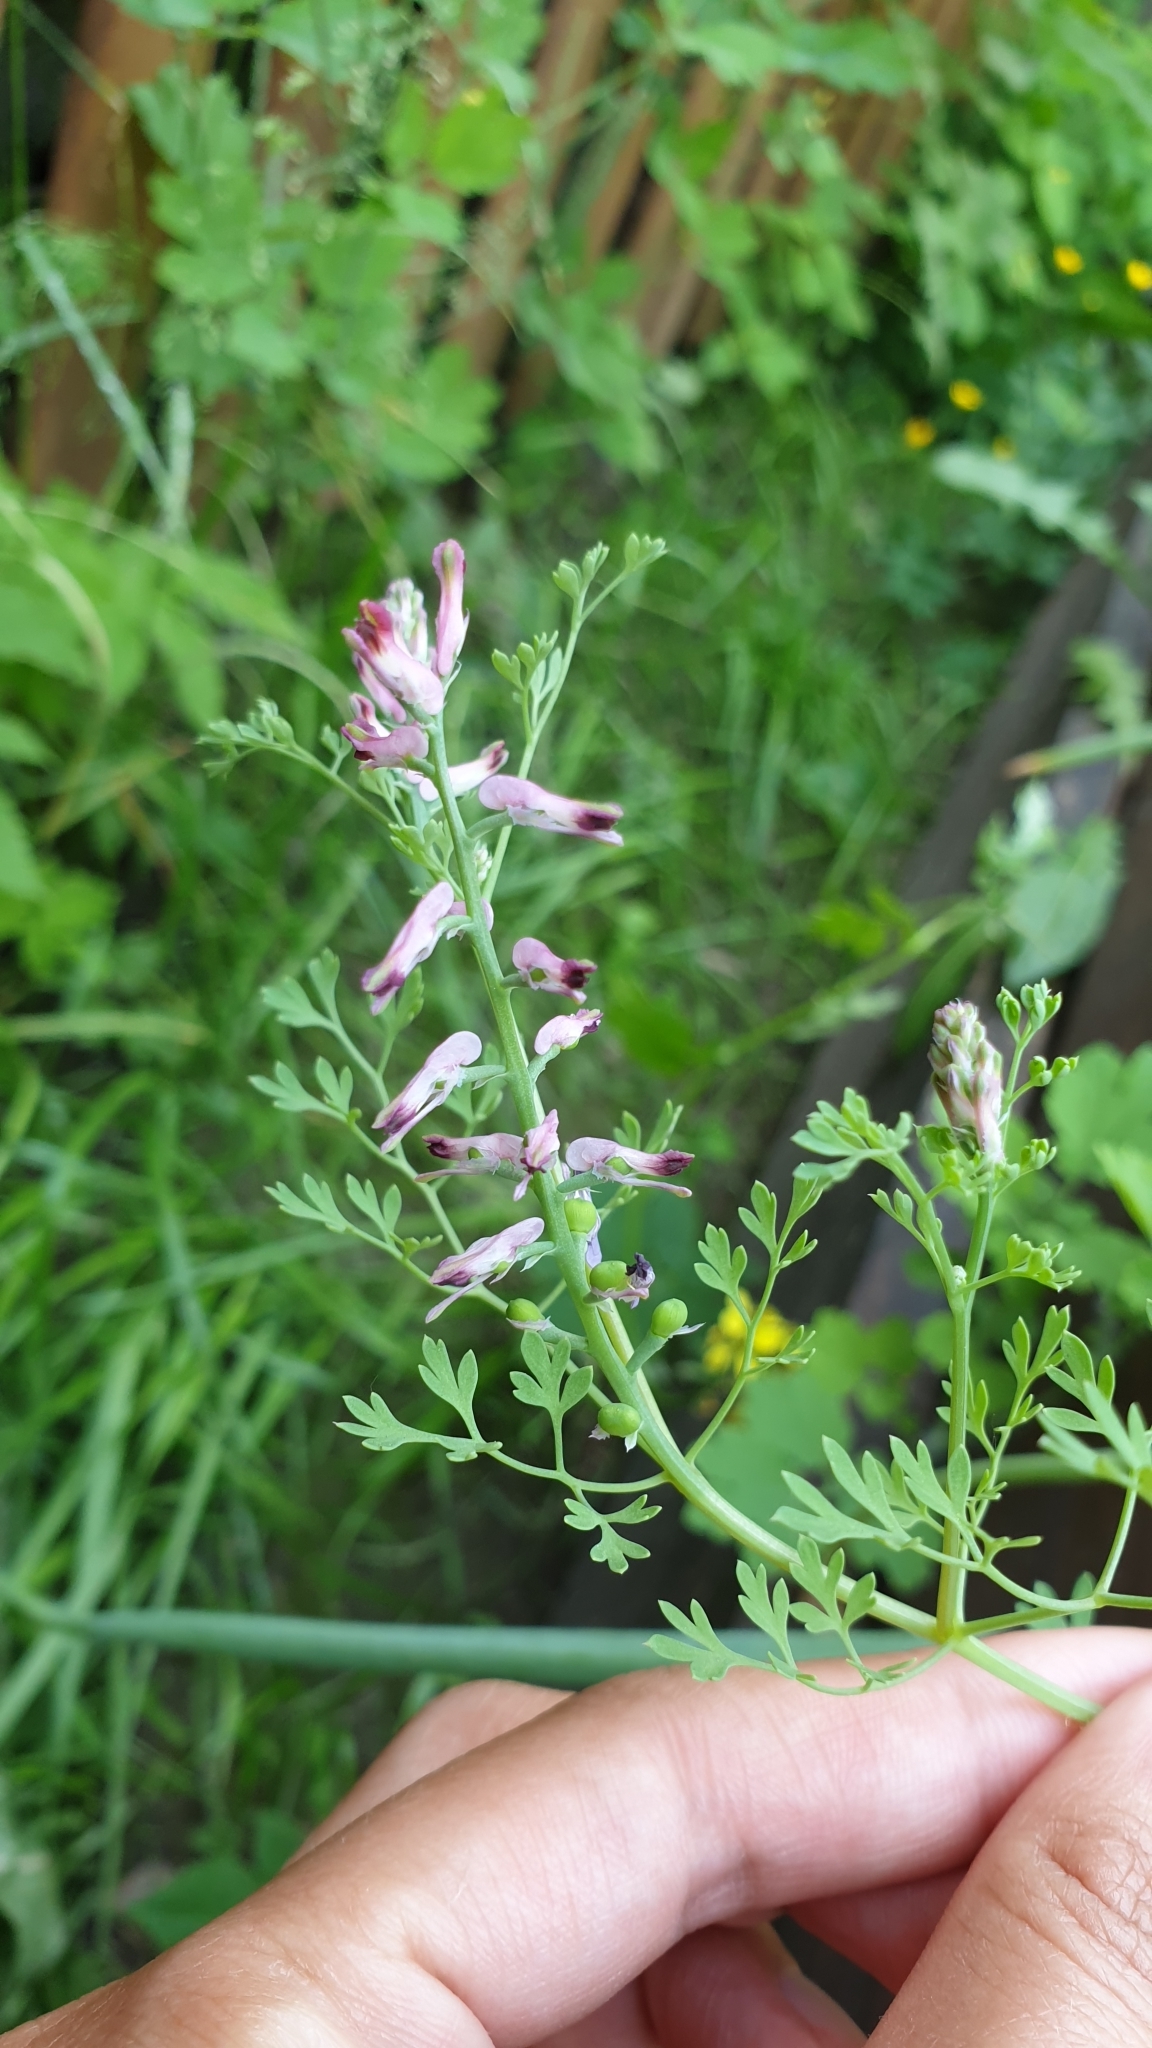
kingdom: Plantae
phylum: Tracheophyta
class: Magnoliopsida
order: Ranunculales
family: Papaveraceae
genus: Fumaria
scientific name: Fumaria officinalis
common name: Common fumitory
